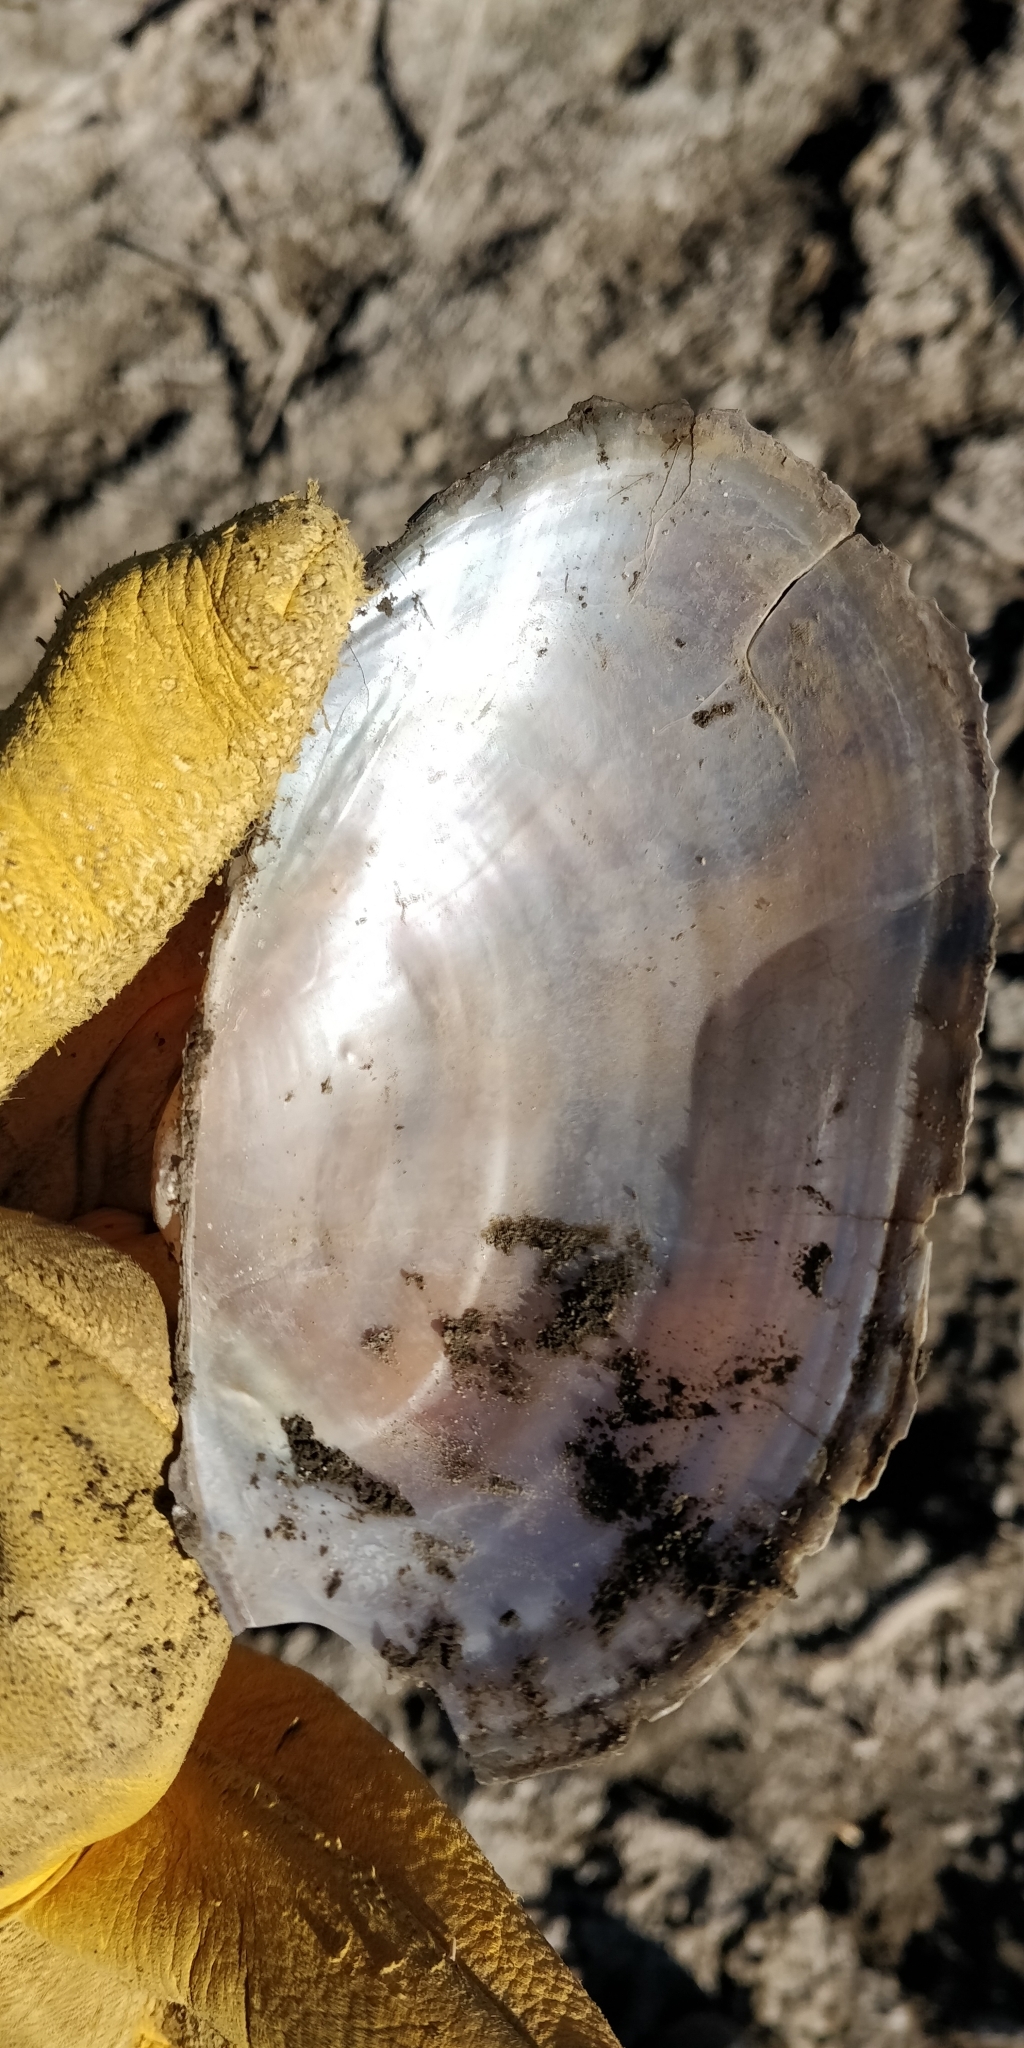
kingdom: Animalia
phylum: Mollusca
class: Bivalvia
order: Unionida
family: Unionidae
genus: Pyganodon
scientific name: Pyganodon grandis
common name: Giant floater
